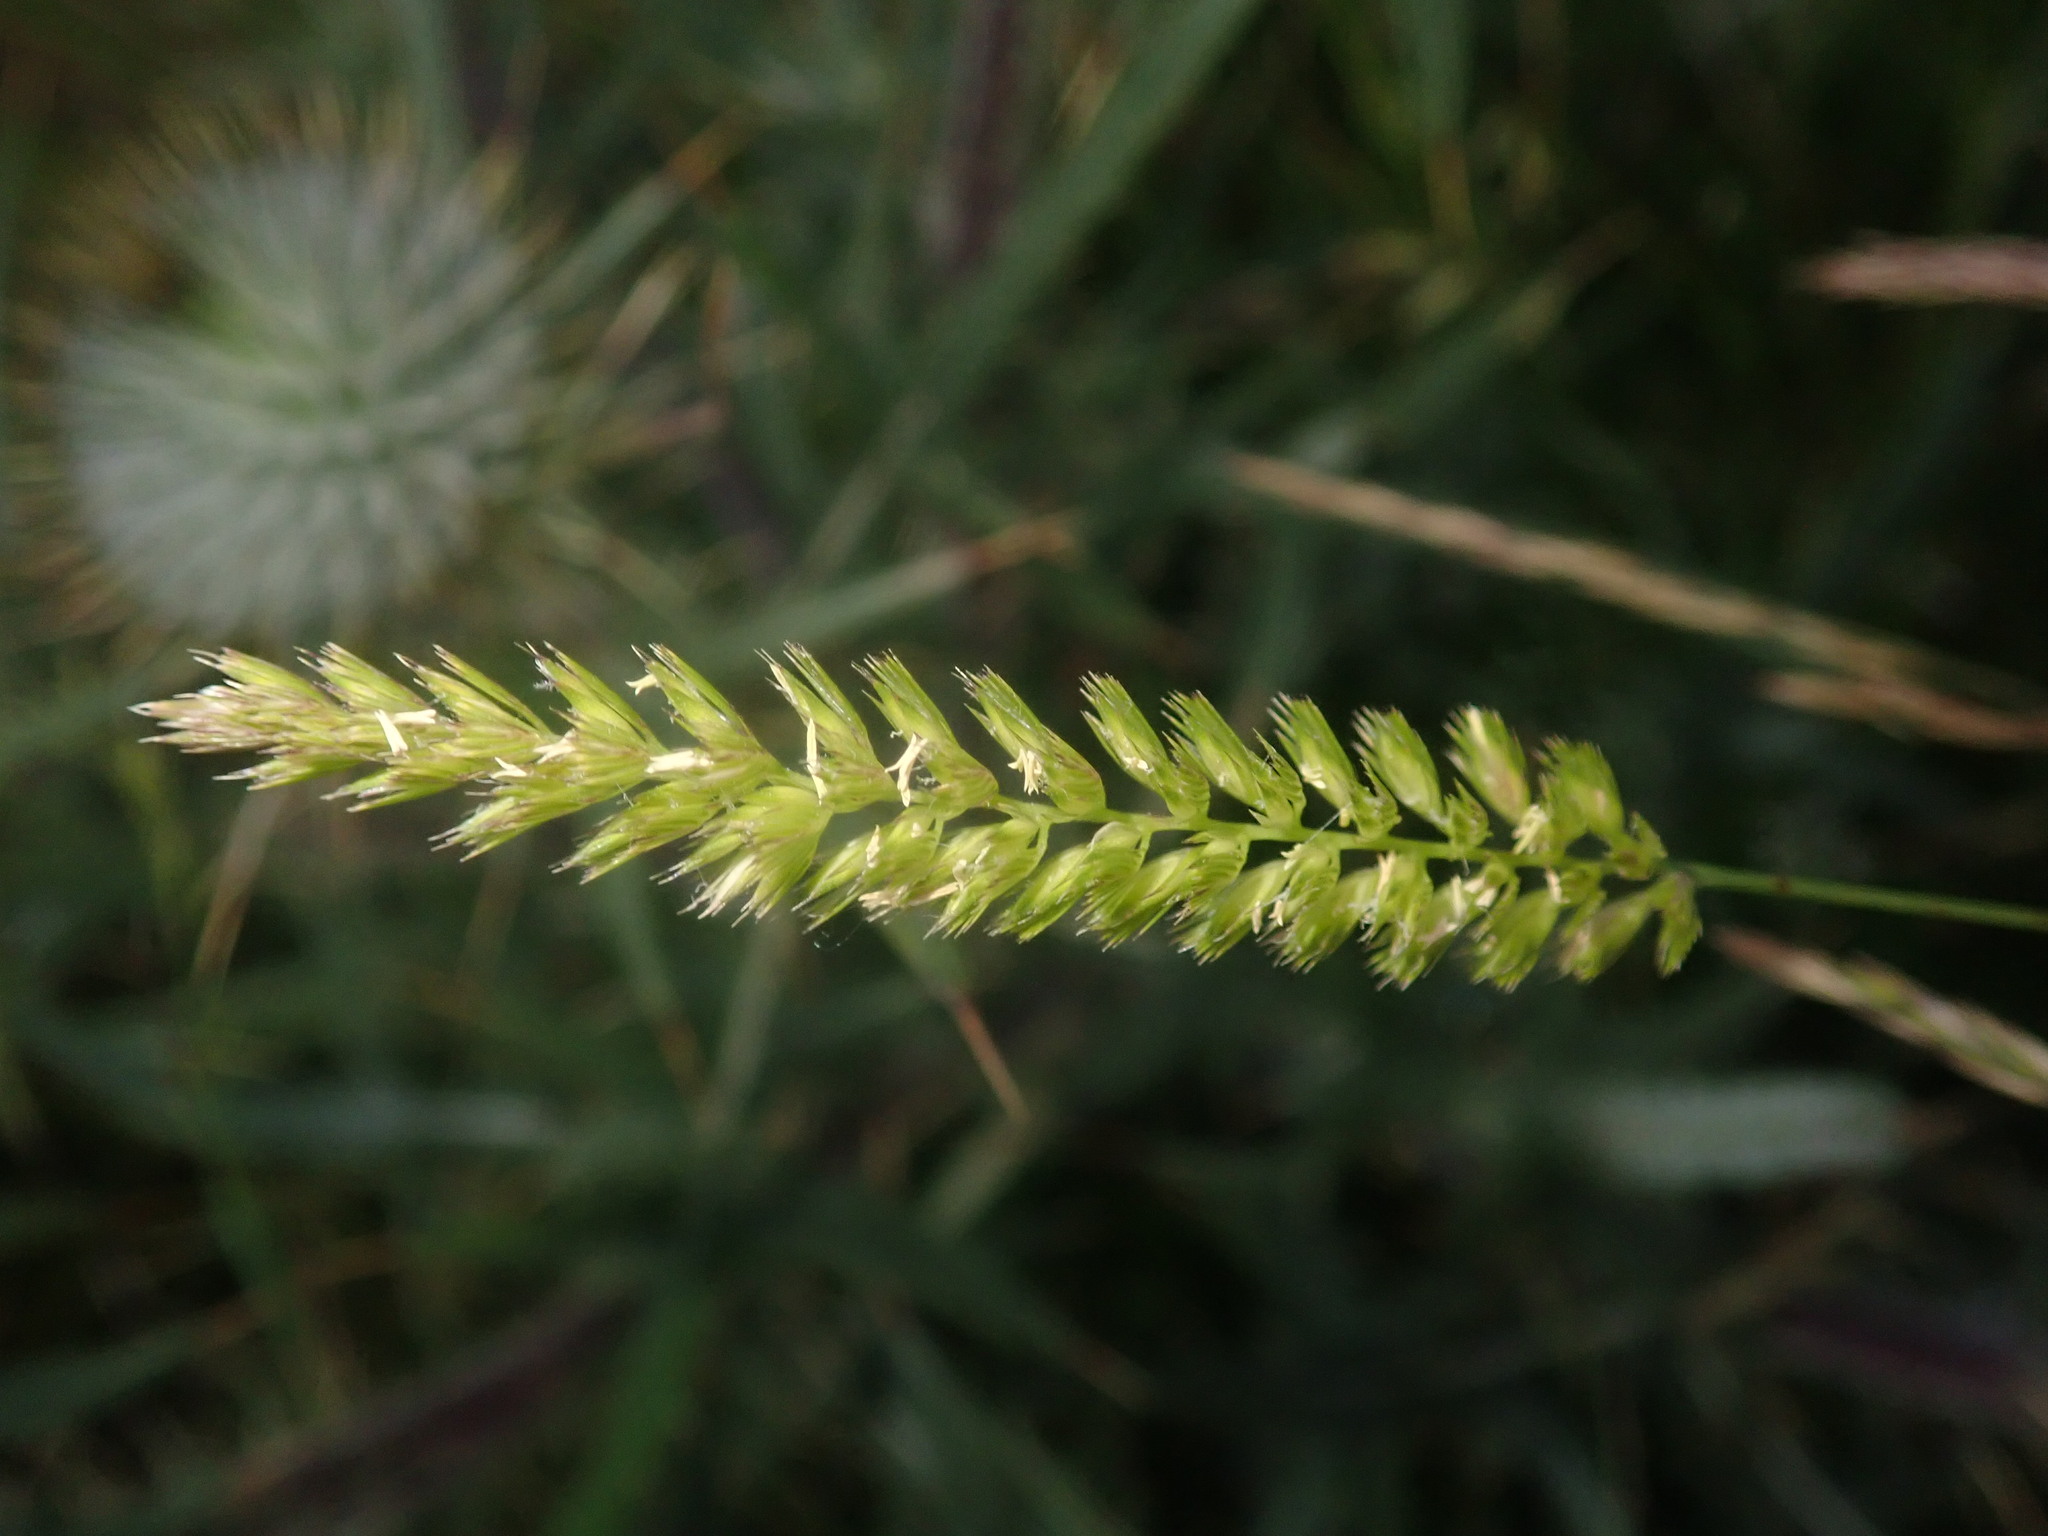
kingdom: Plantae
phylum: Tracheophyta
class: Liliopsida
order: Poales
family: Poaceae
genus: Cynosurus
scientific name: Cynosurus cristatus
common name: Crested dog's-tail
